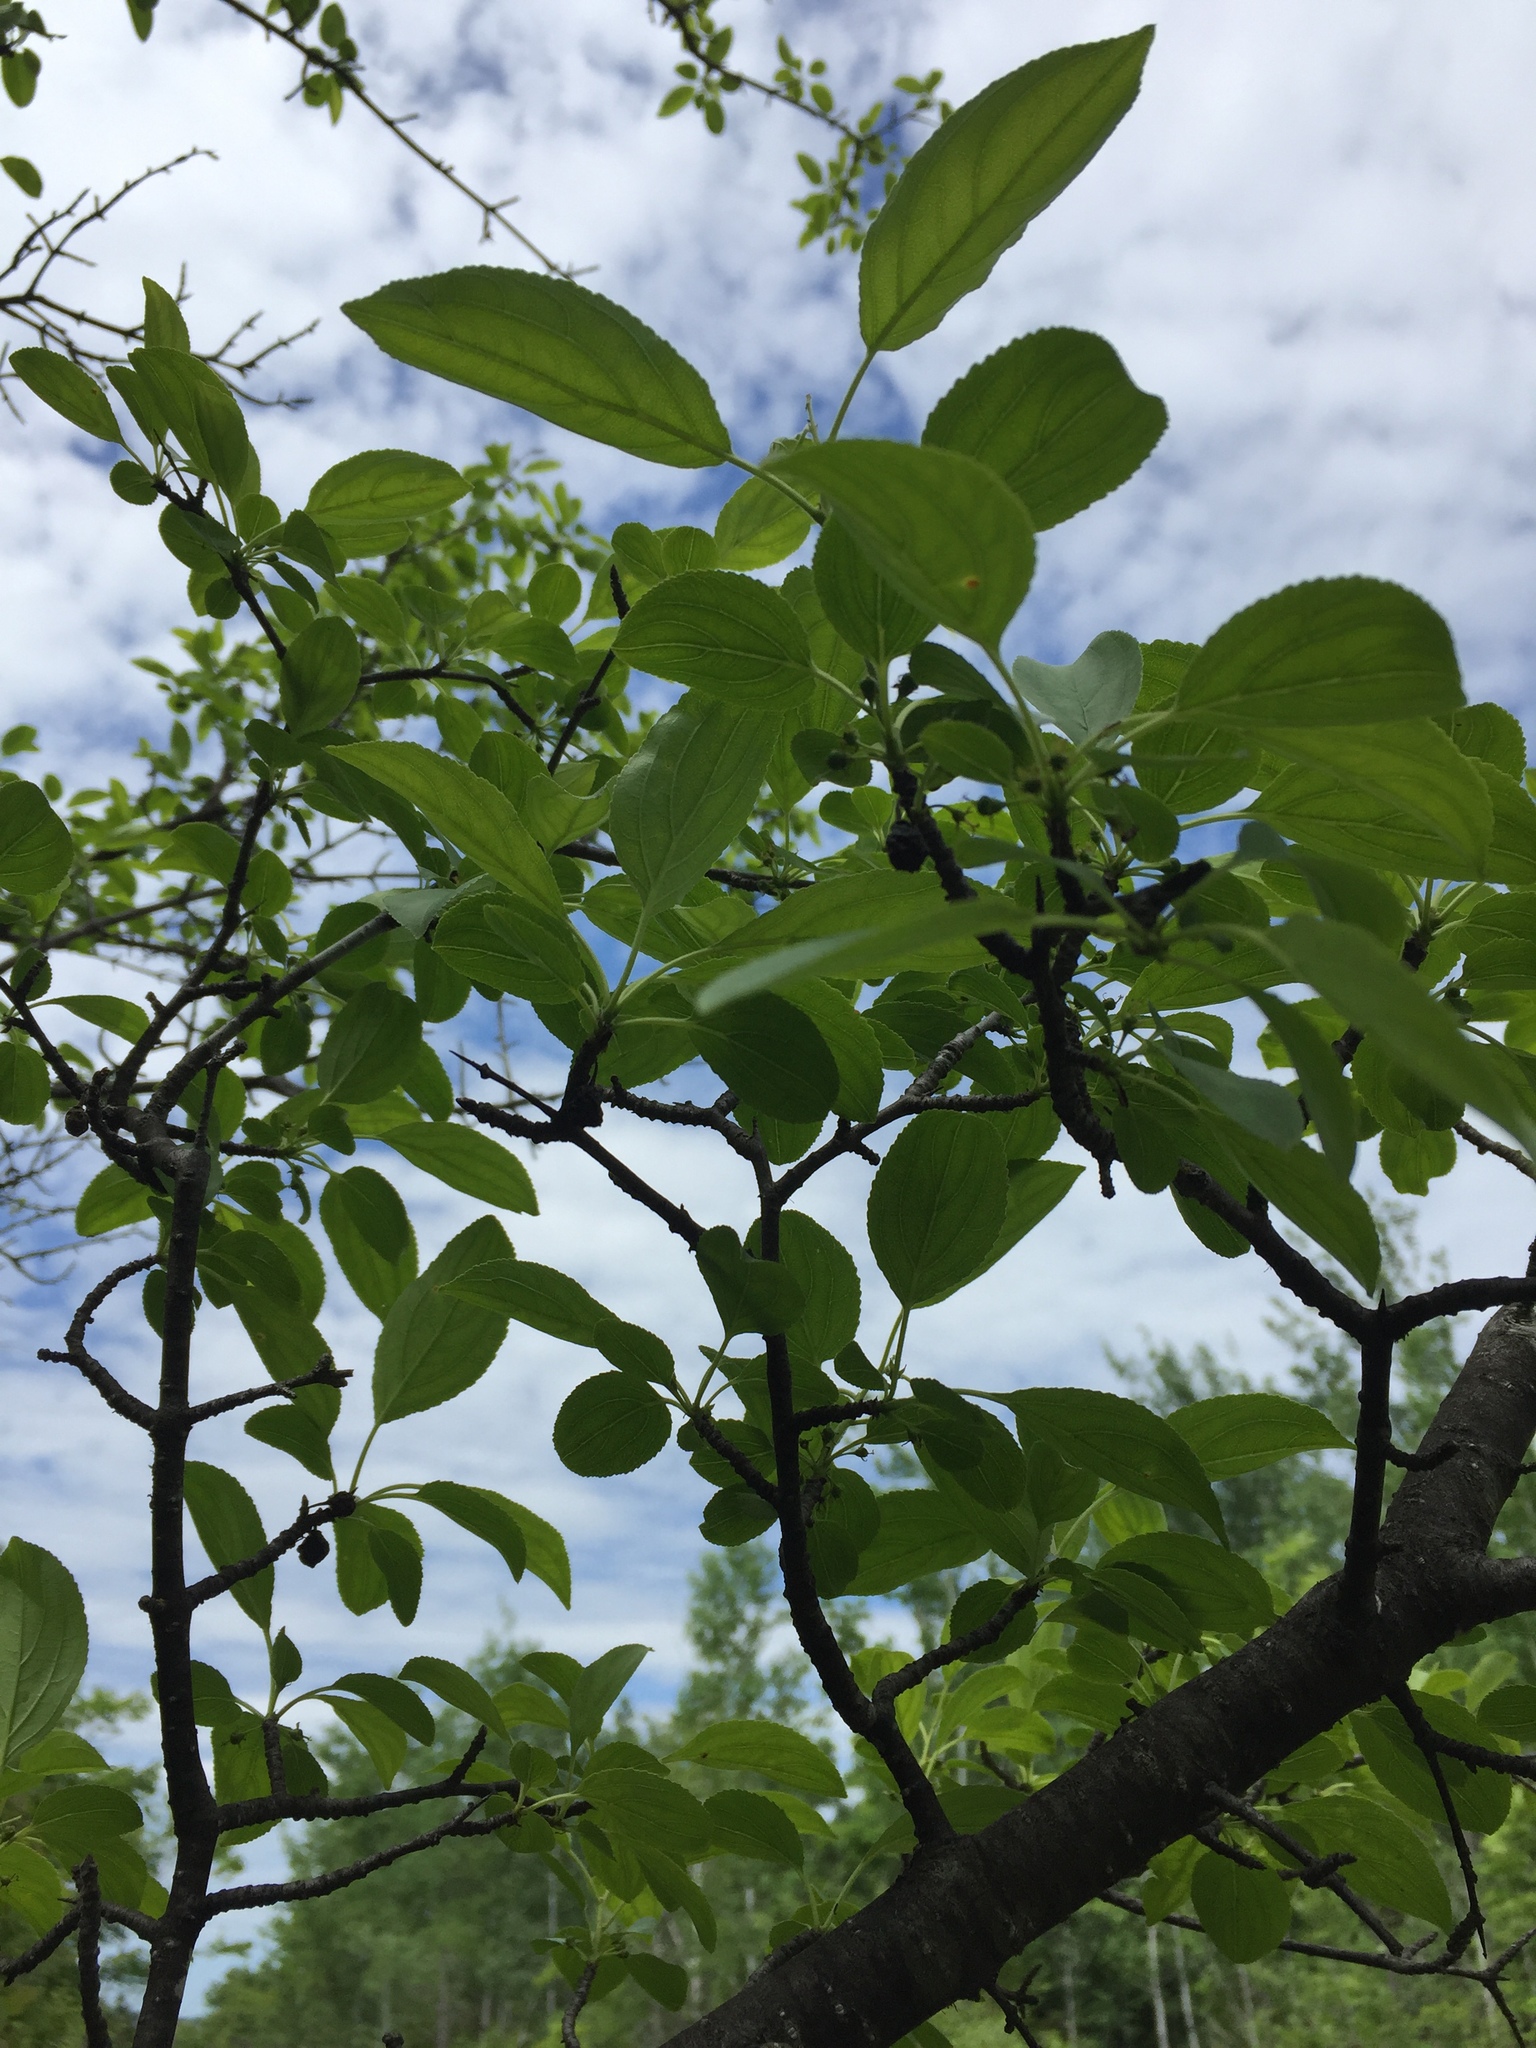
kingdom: Plantae
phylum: Tracheophyta
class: Magnoliopsida
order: Rosales
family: Rhamnaceae
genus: Rhamnus
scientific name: Rhamnus cathartica
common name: Common buckthorn
